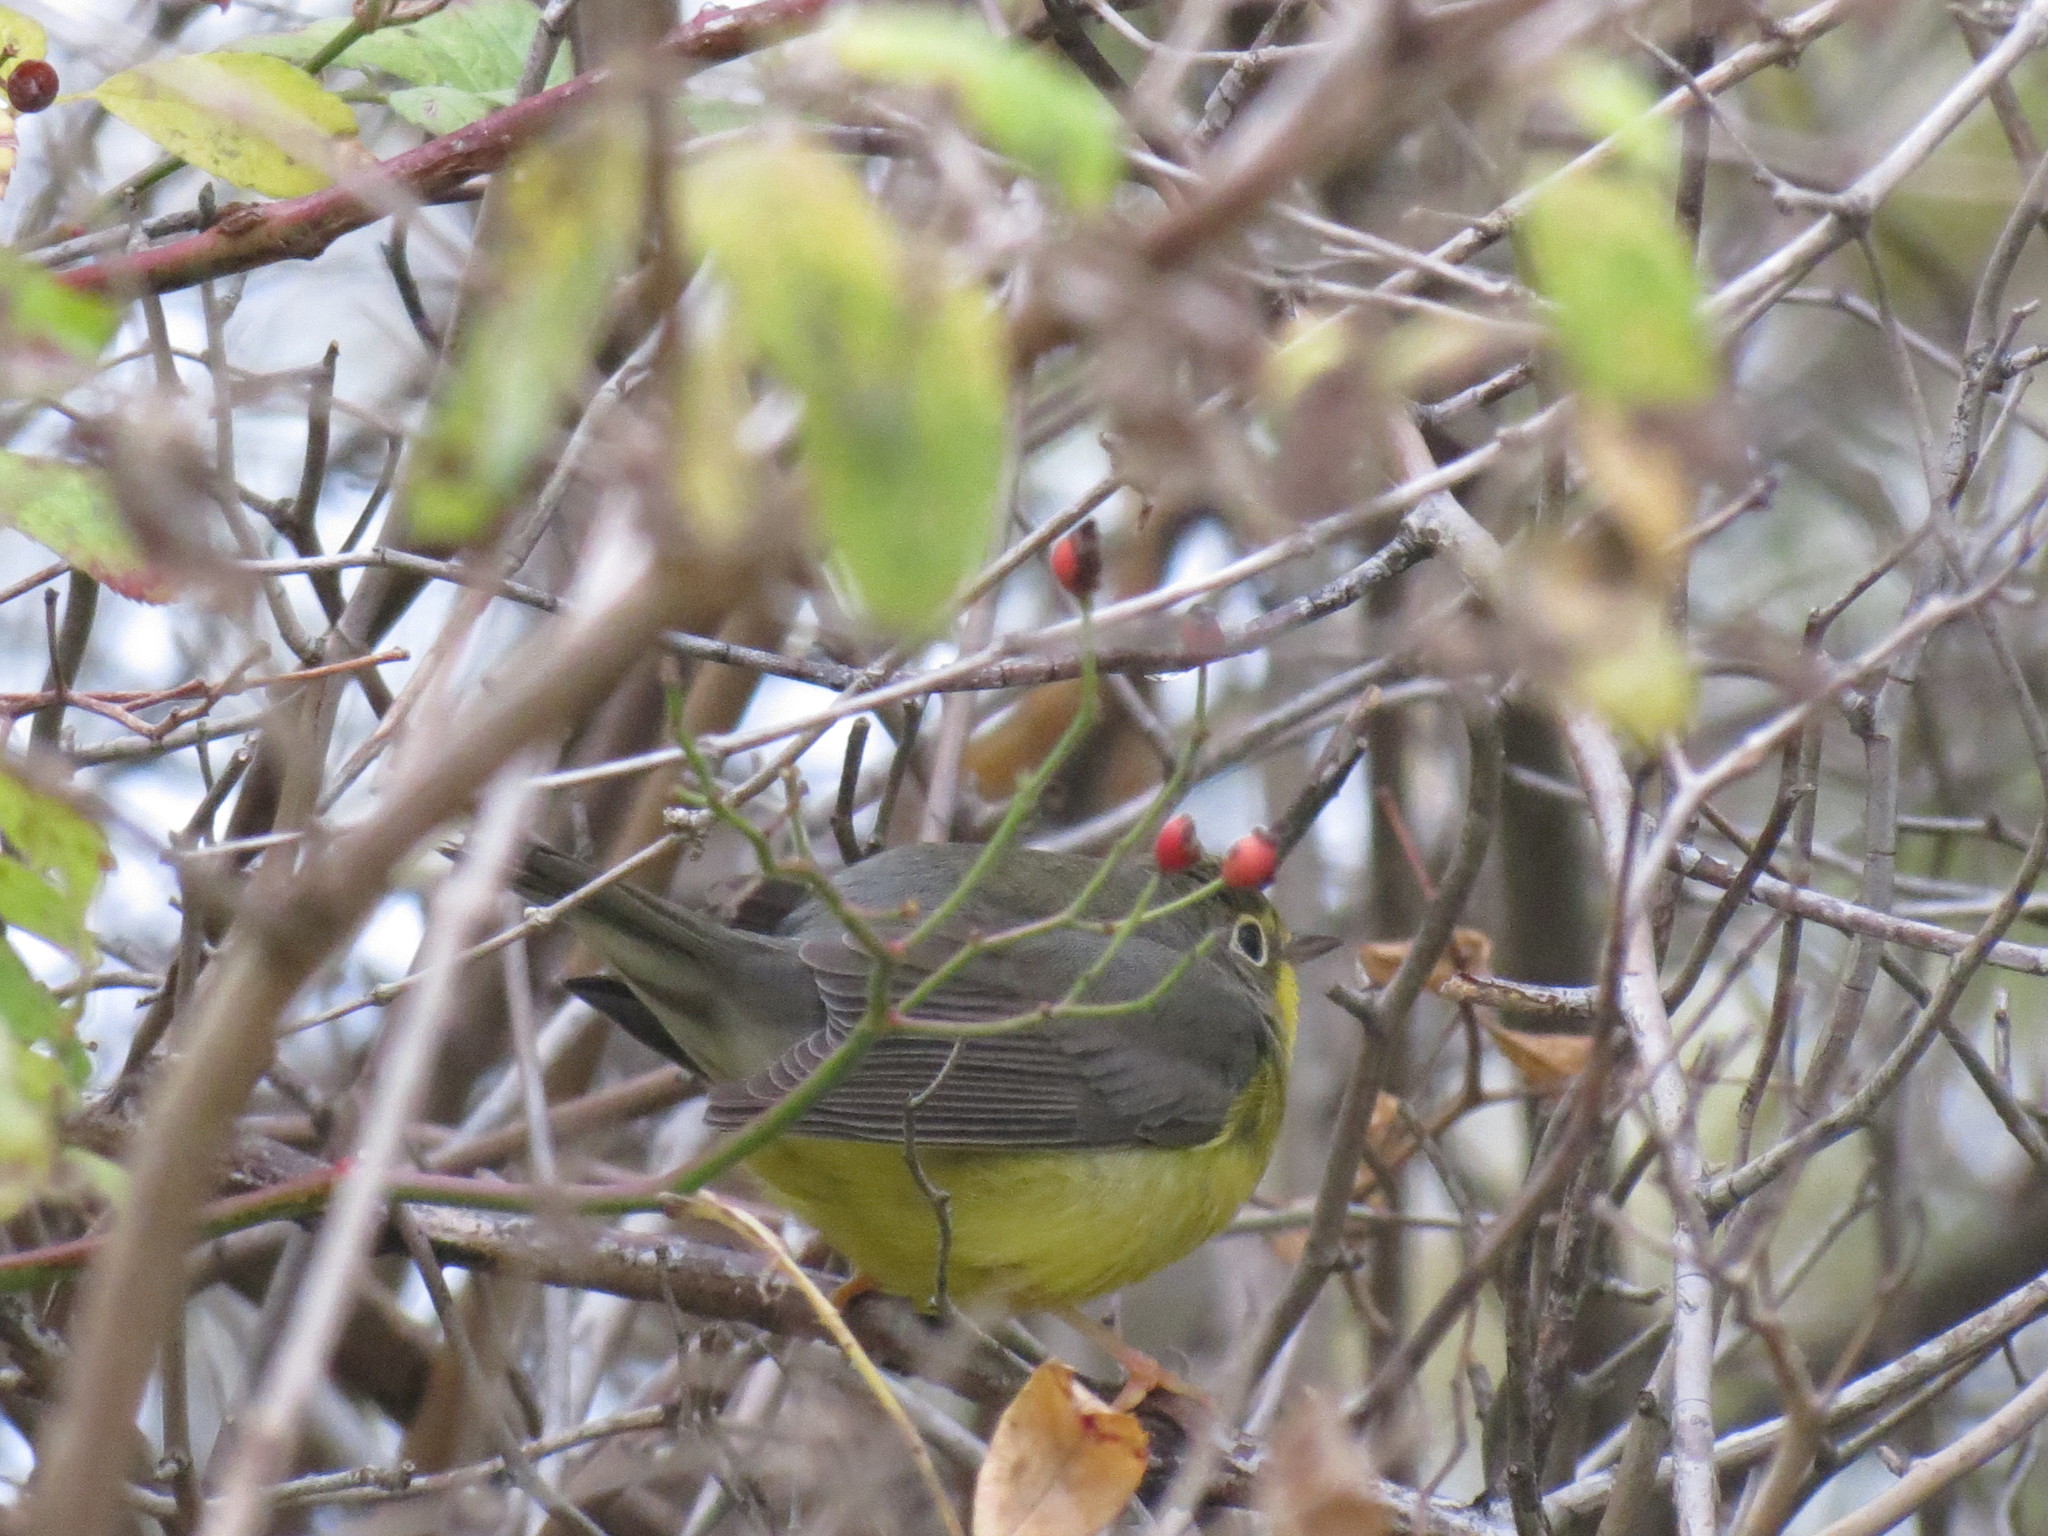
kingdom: Animalia
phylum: Chordata
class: Aves
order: Passeriformes
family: Parulidae
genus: Cardellina
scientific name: Cardellina canadensis
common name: Canada warbler
